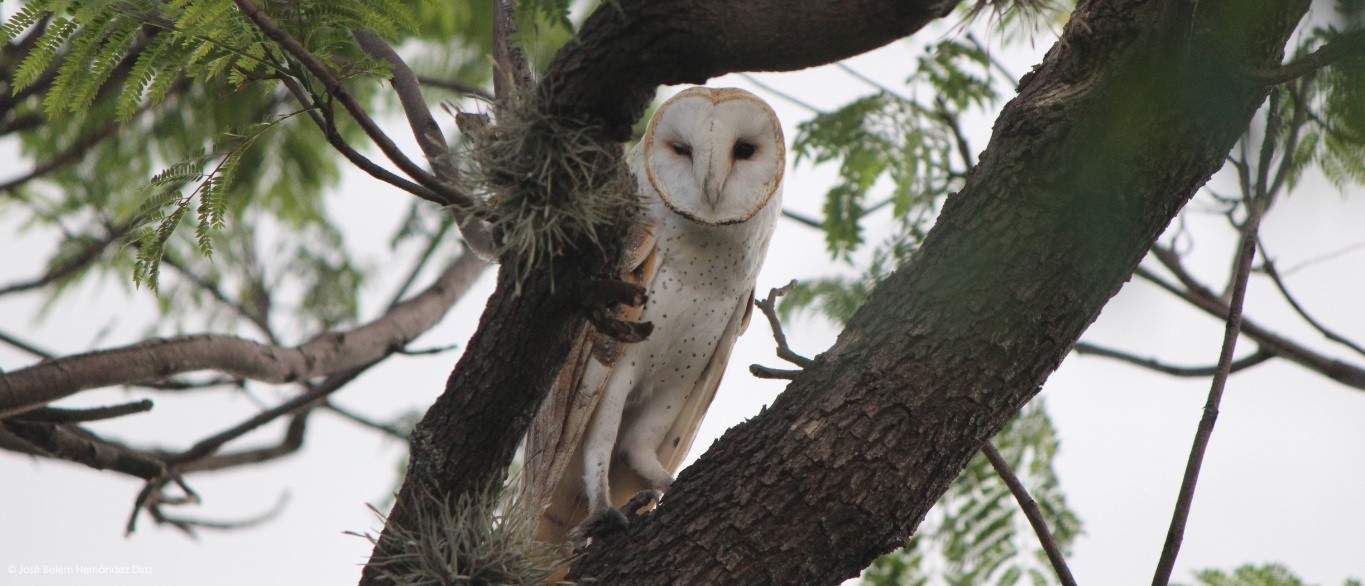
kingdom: Animalia
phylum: Chordata
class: Aves
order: Strigiformes
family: Tytonidae
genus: Tyto
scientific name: Tyto alba
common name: Barn owl
